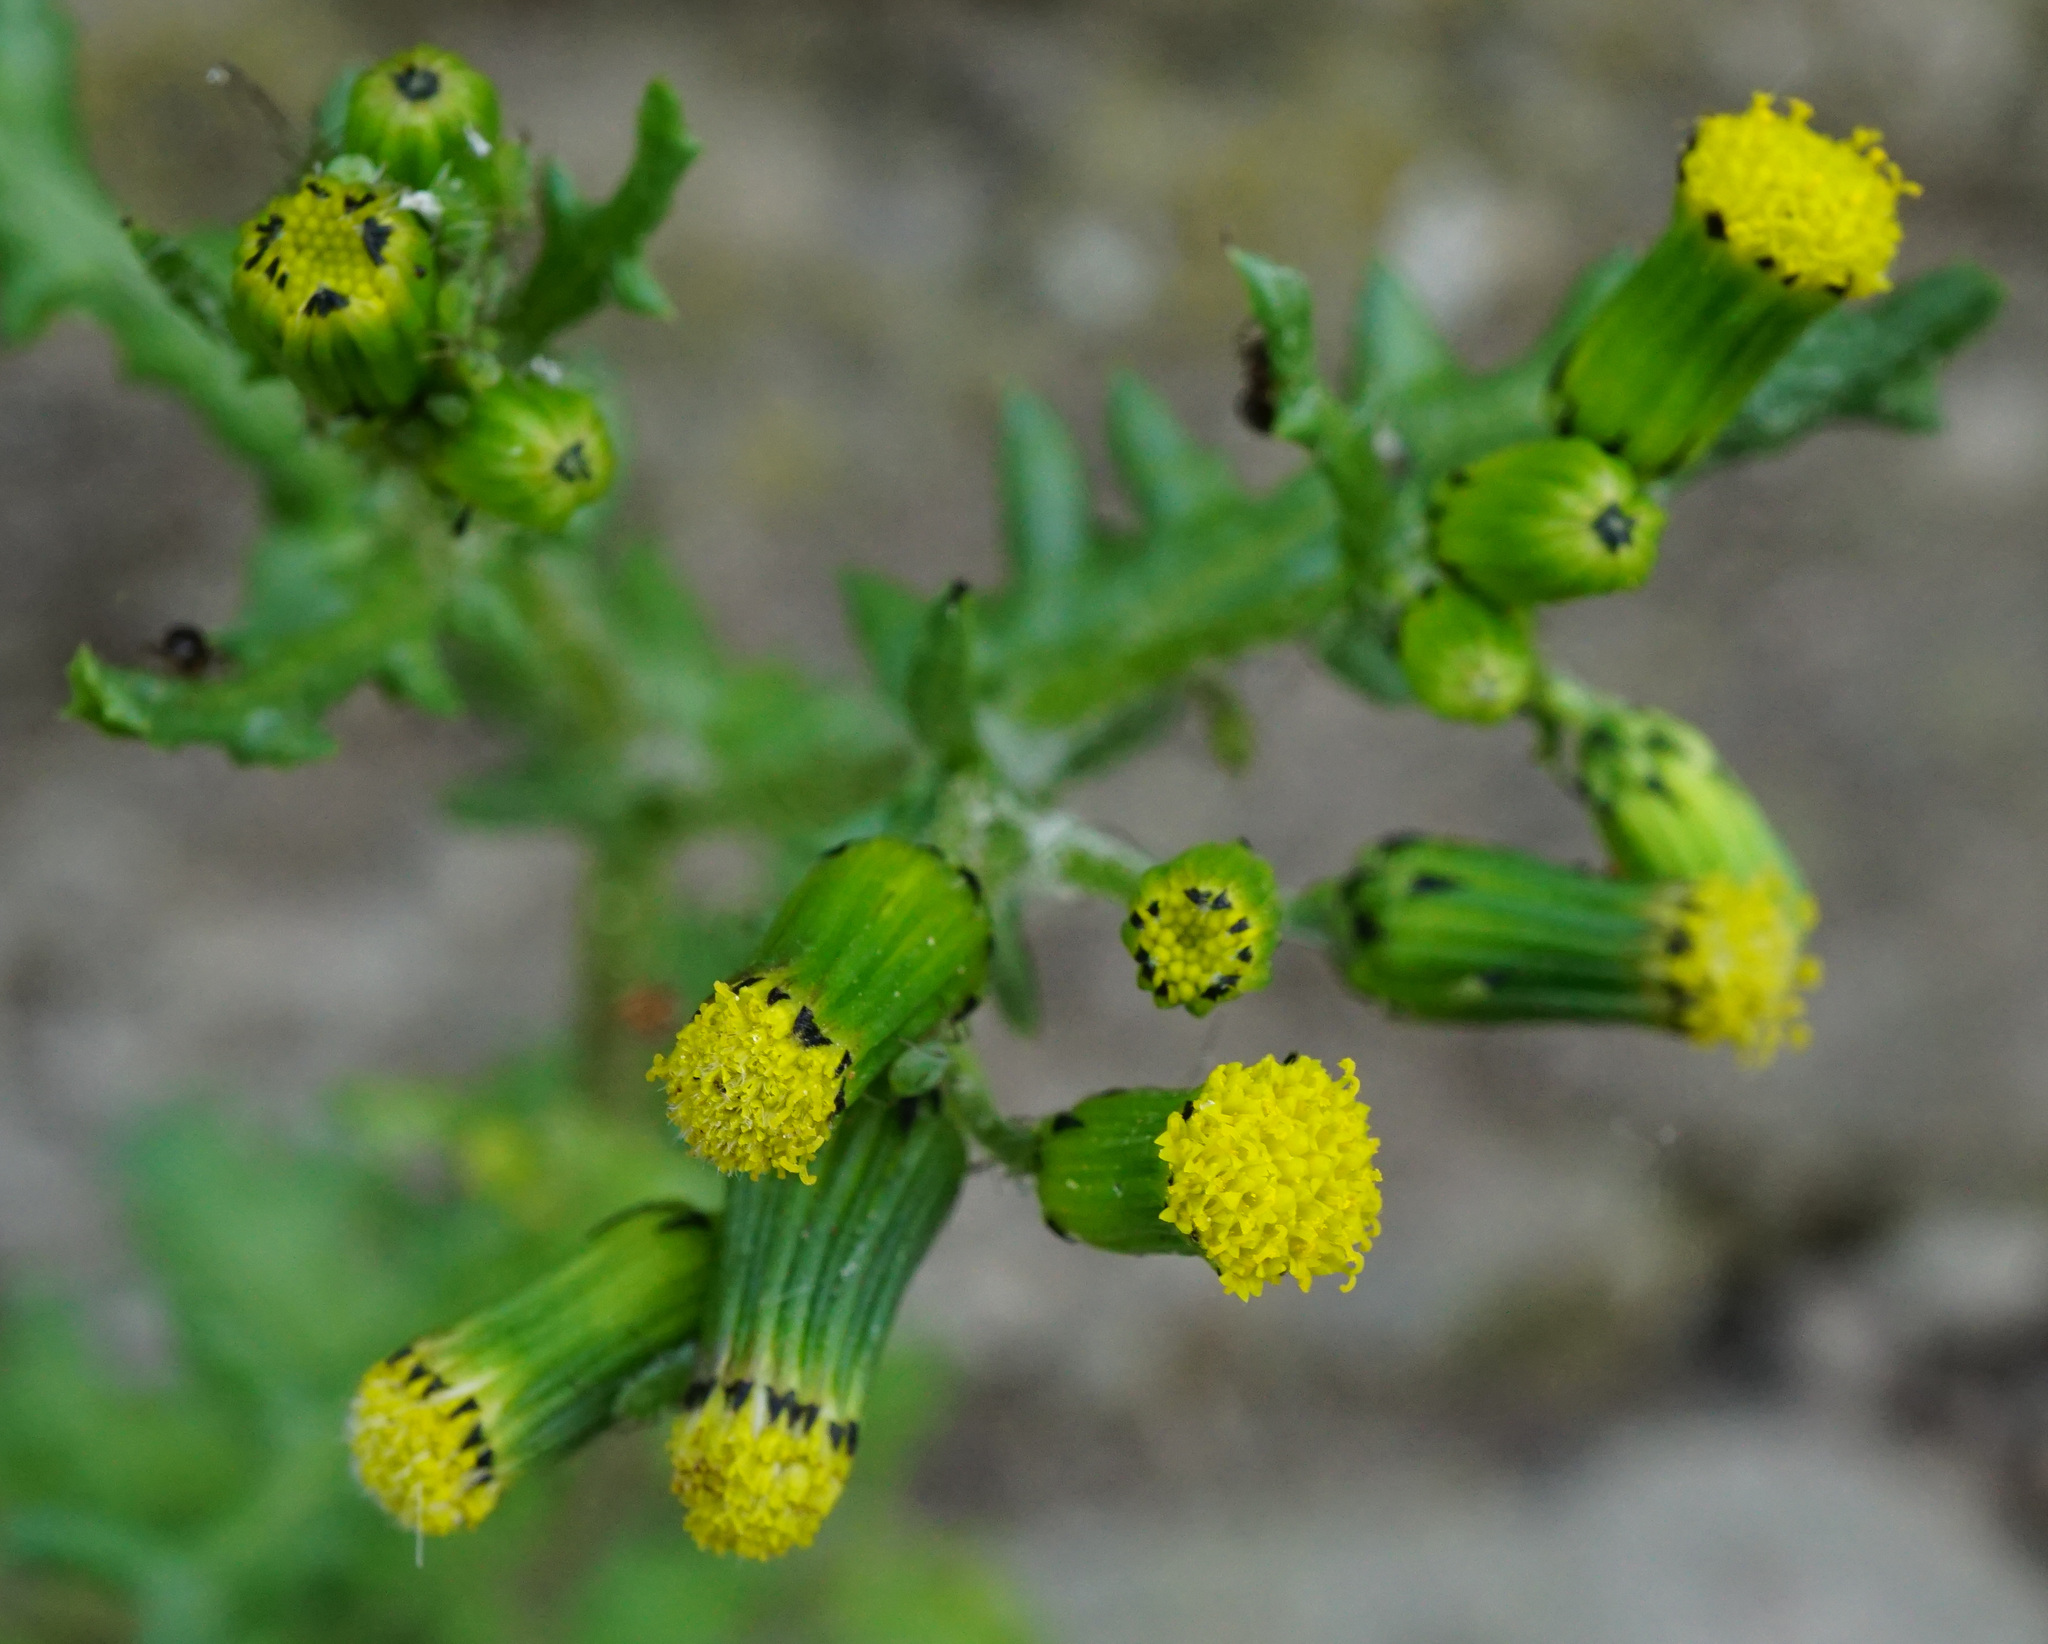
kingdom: Plantae
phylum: Tracheophyta
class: Magnoliopsida
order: Asterales
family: Asteraceae
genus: Senecio
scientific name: Senecio vulgaris
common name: Old-man-in-the-spring
